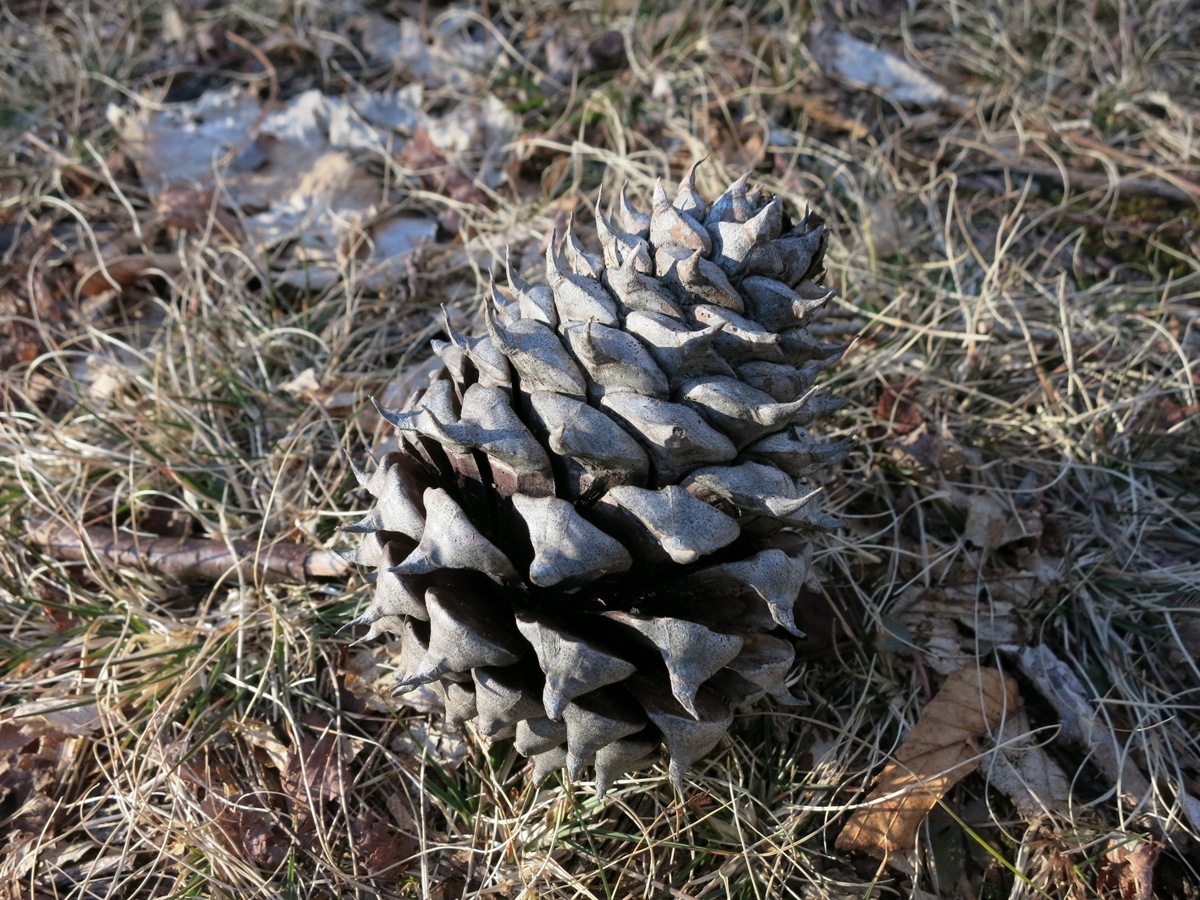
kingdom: Plantae
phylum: Tracheophyta
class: Pinopsida
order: Pinales
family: Pinaceae
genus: Pinus
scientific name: Pinus pungens
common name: Hickory pine
